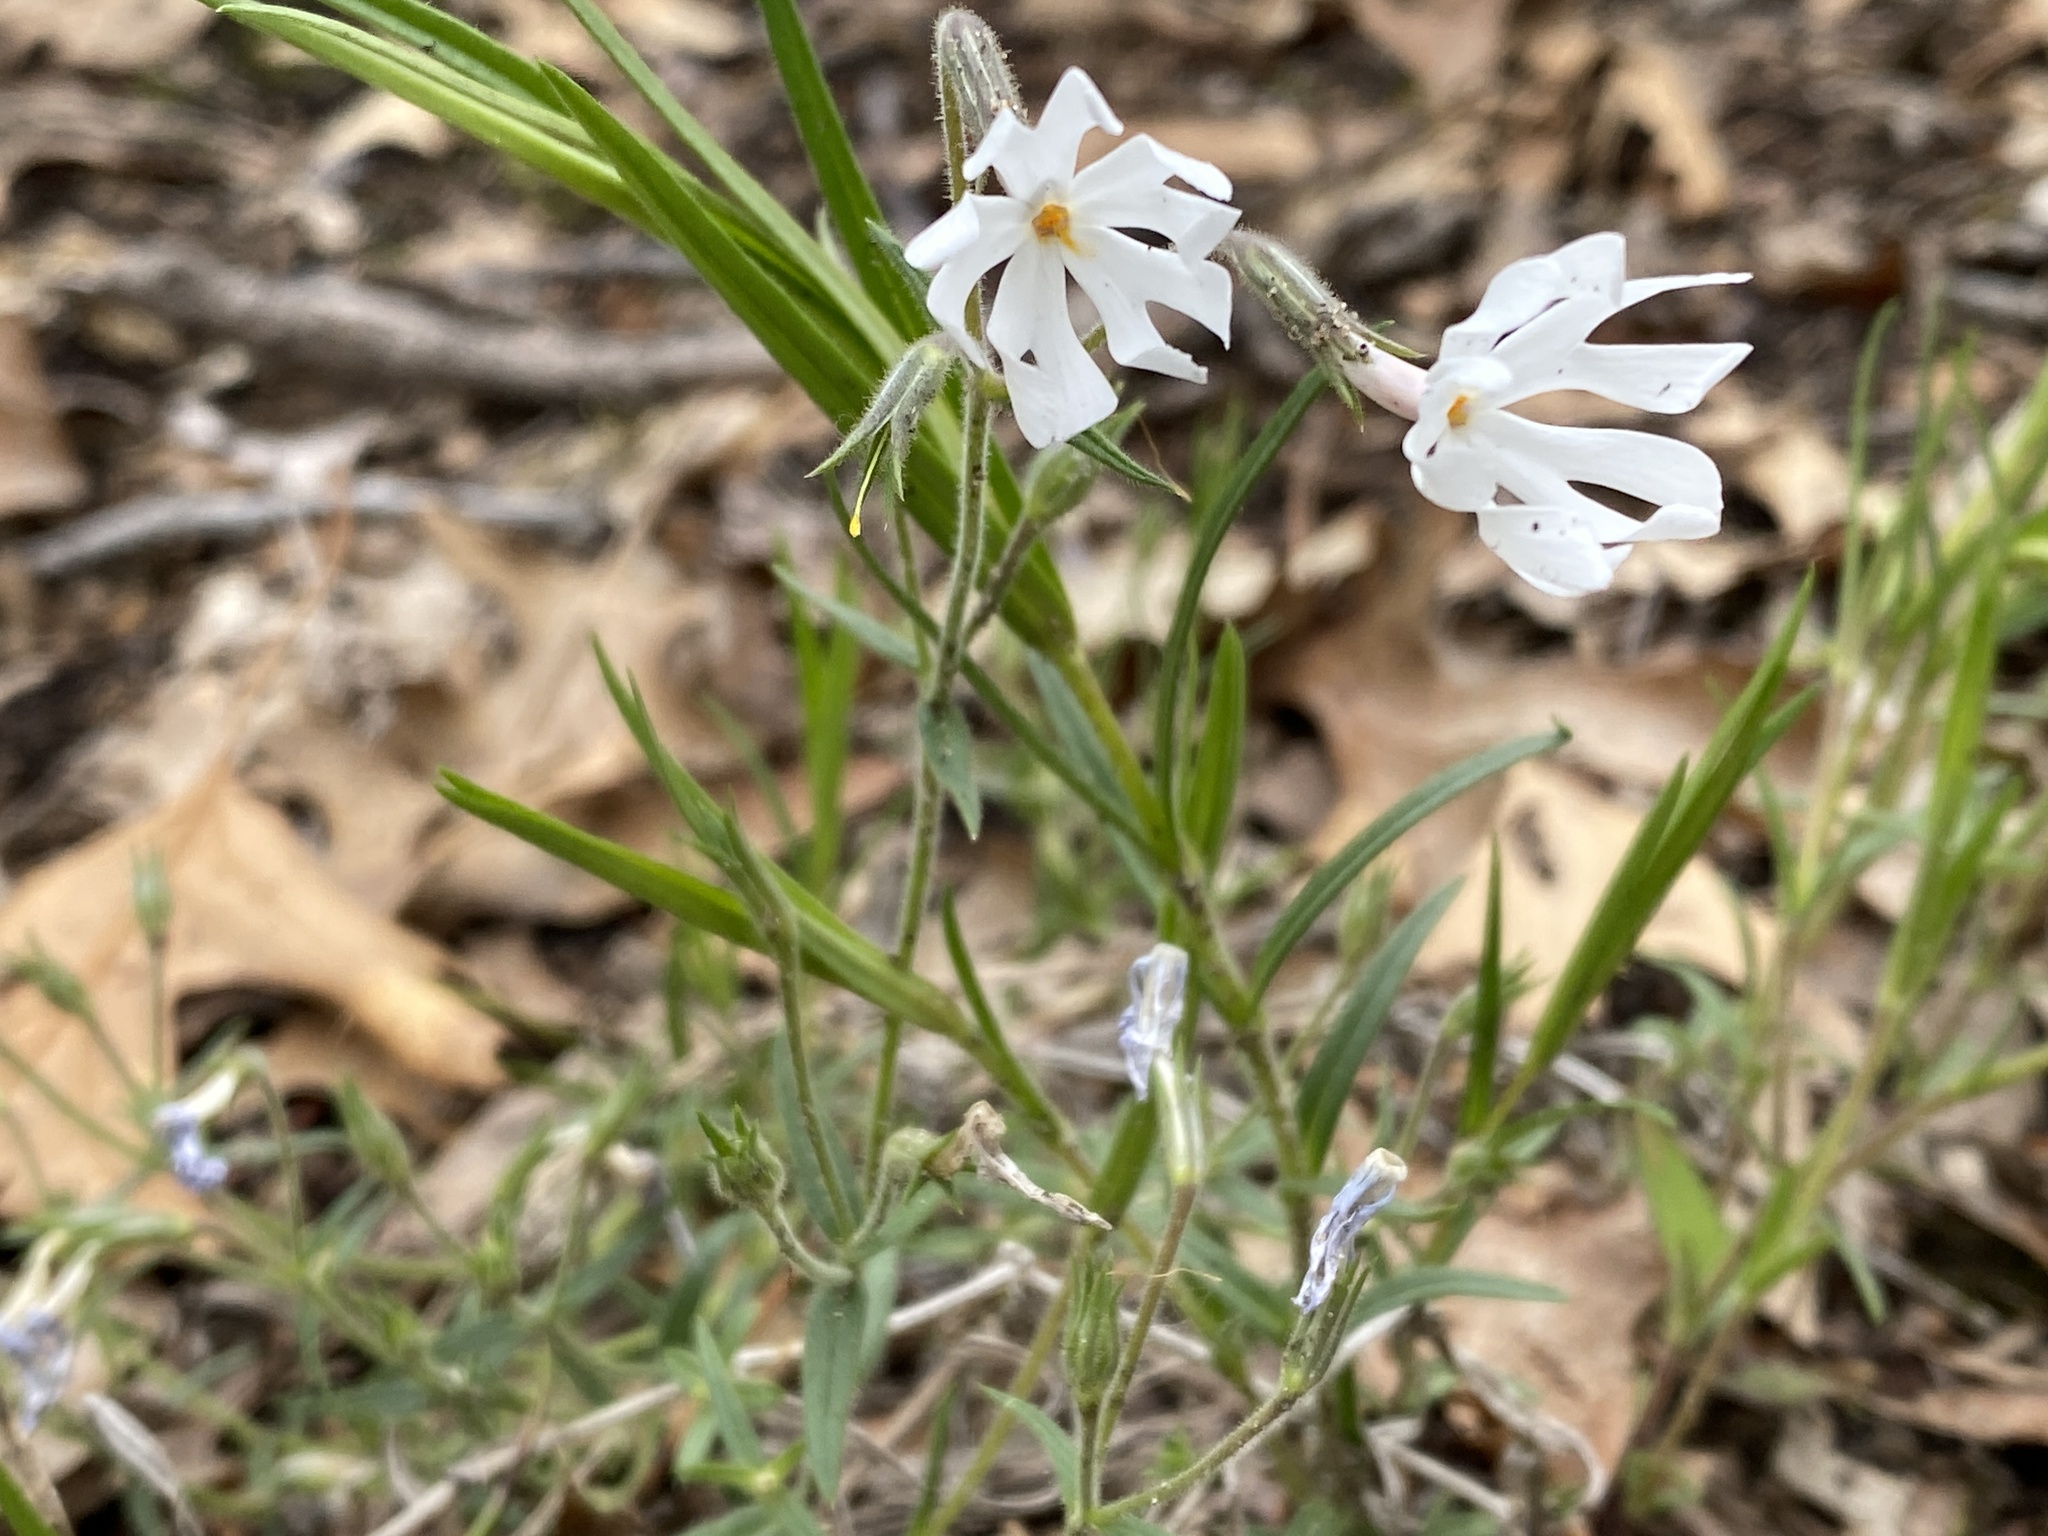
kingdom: Plantae
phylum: Tracheophyta
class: Magnoliopsida
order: Ericales
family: Polemoniaceae
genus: Phlox
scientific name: Phlox bifida
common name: Sand phlox
